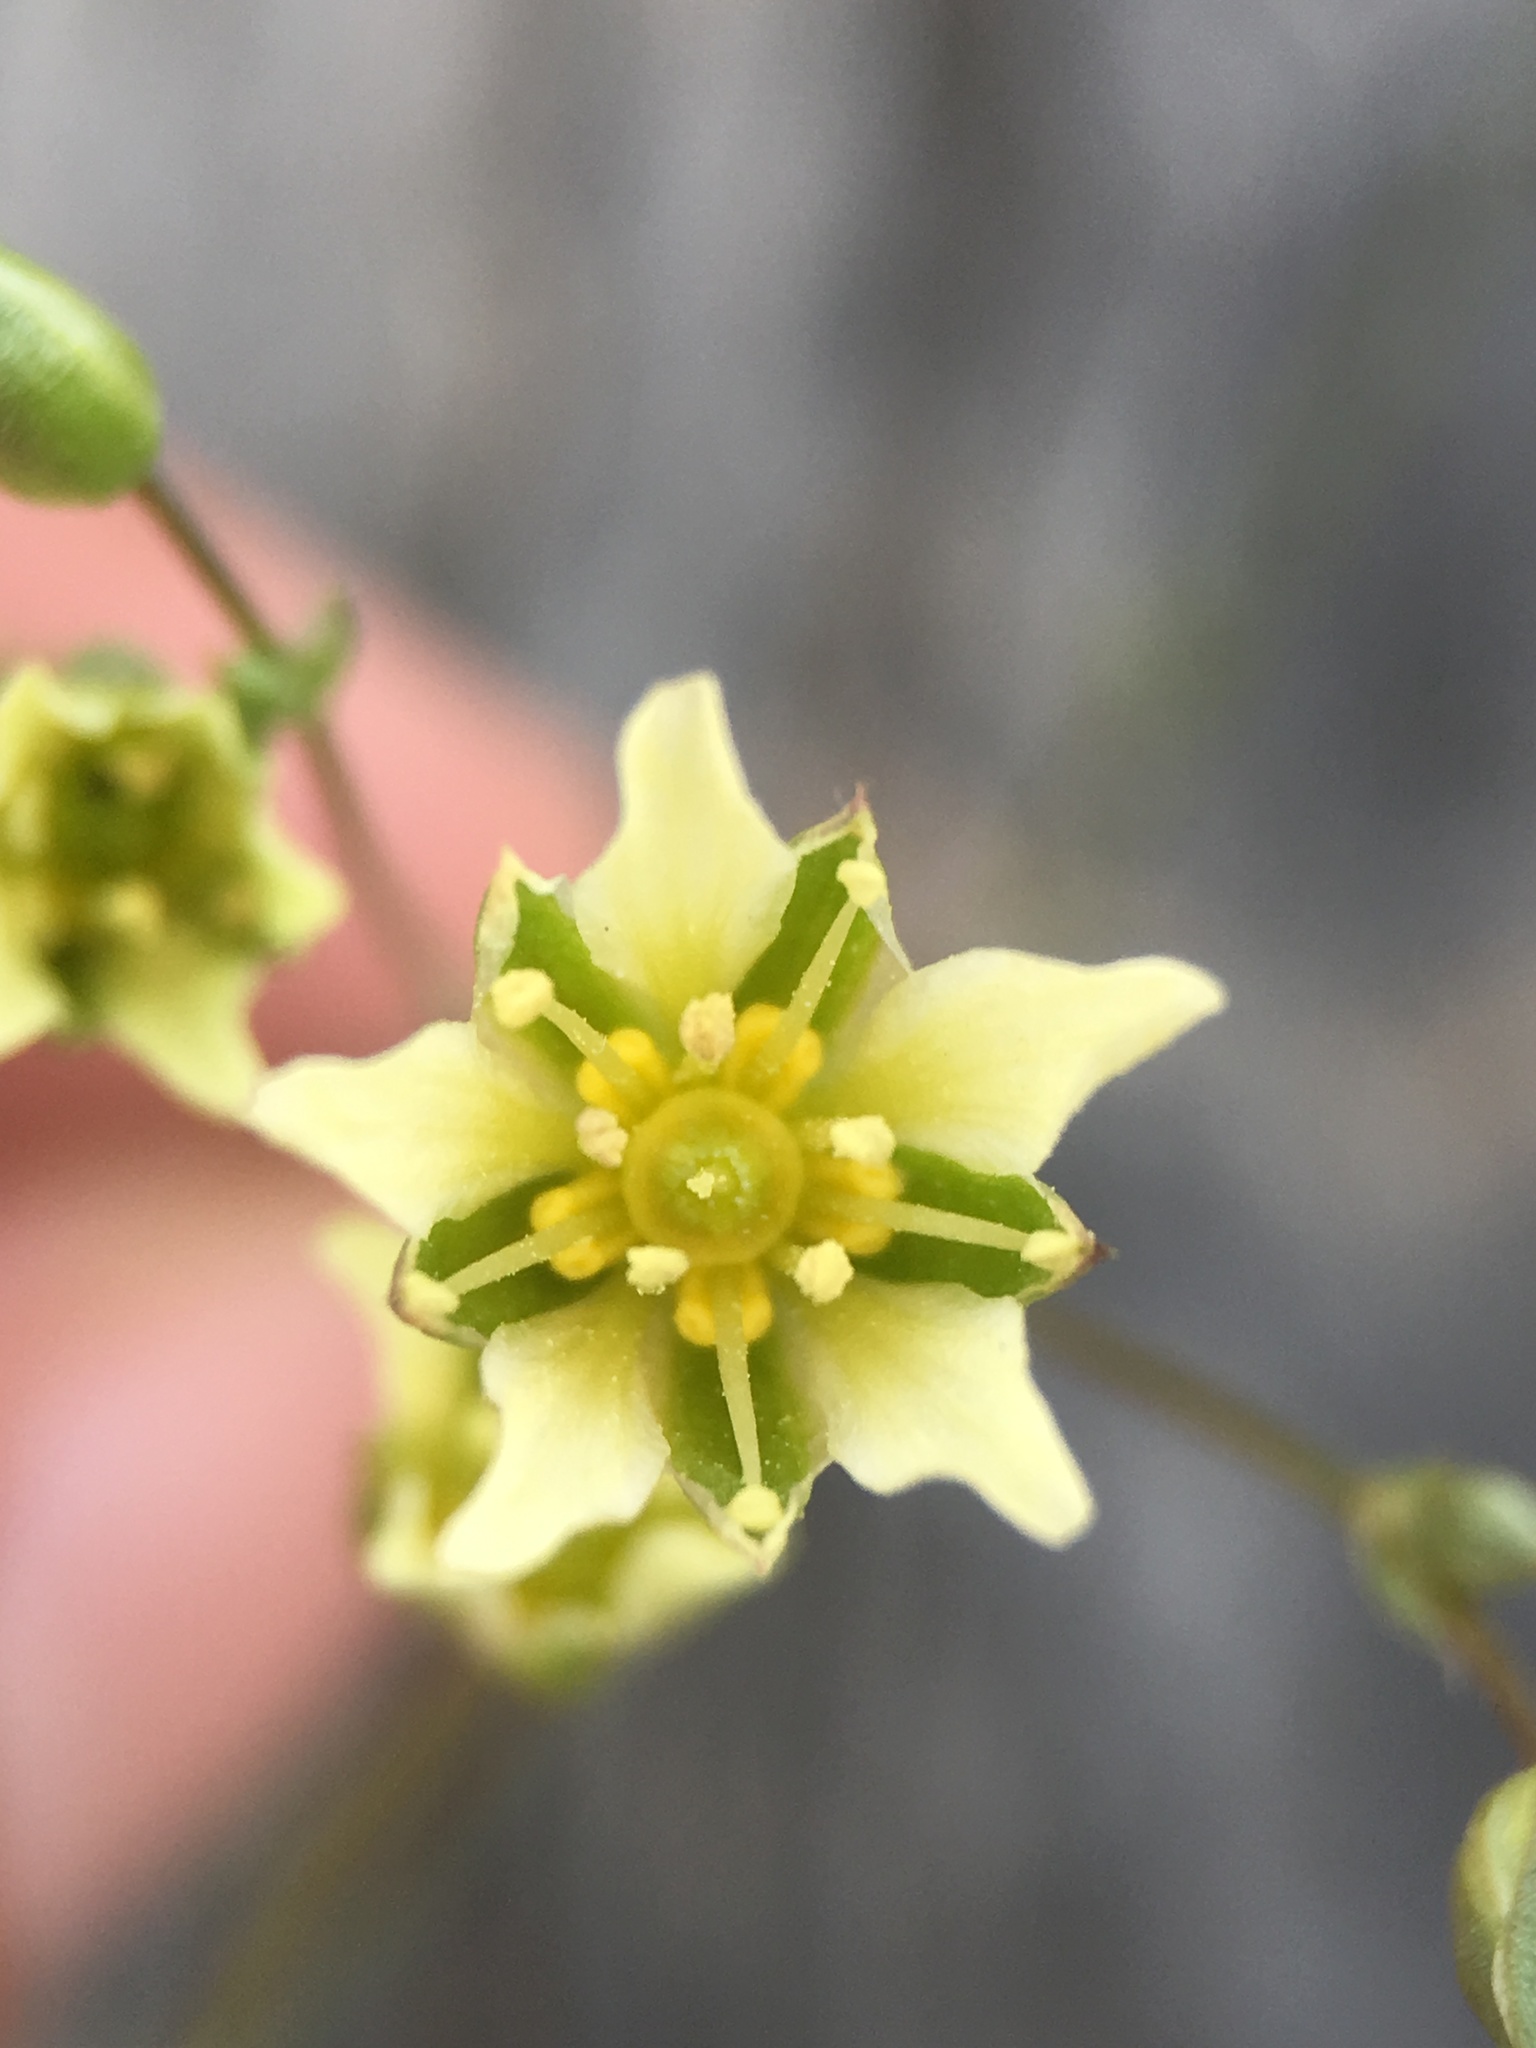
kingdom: Plantae
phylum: Tracheophyta
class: Magnoliopsida
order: Caryophyllales
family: Caryophyllaceae
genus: Eremogone
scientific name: Eremogone macradenia
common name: Mohave sandwort
